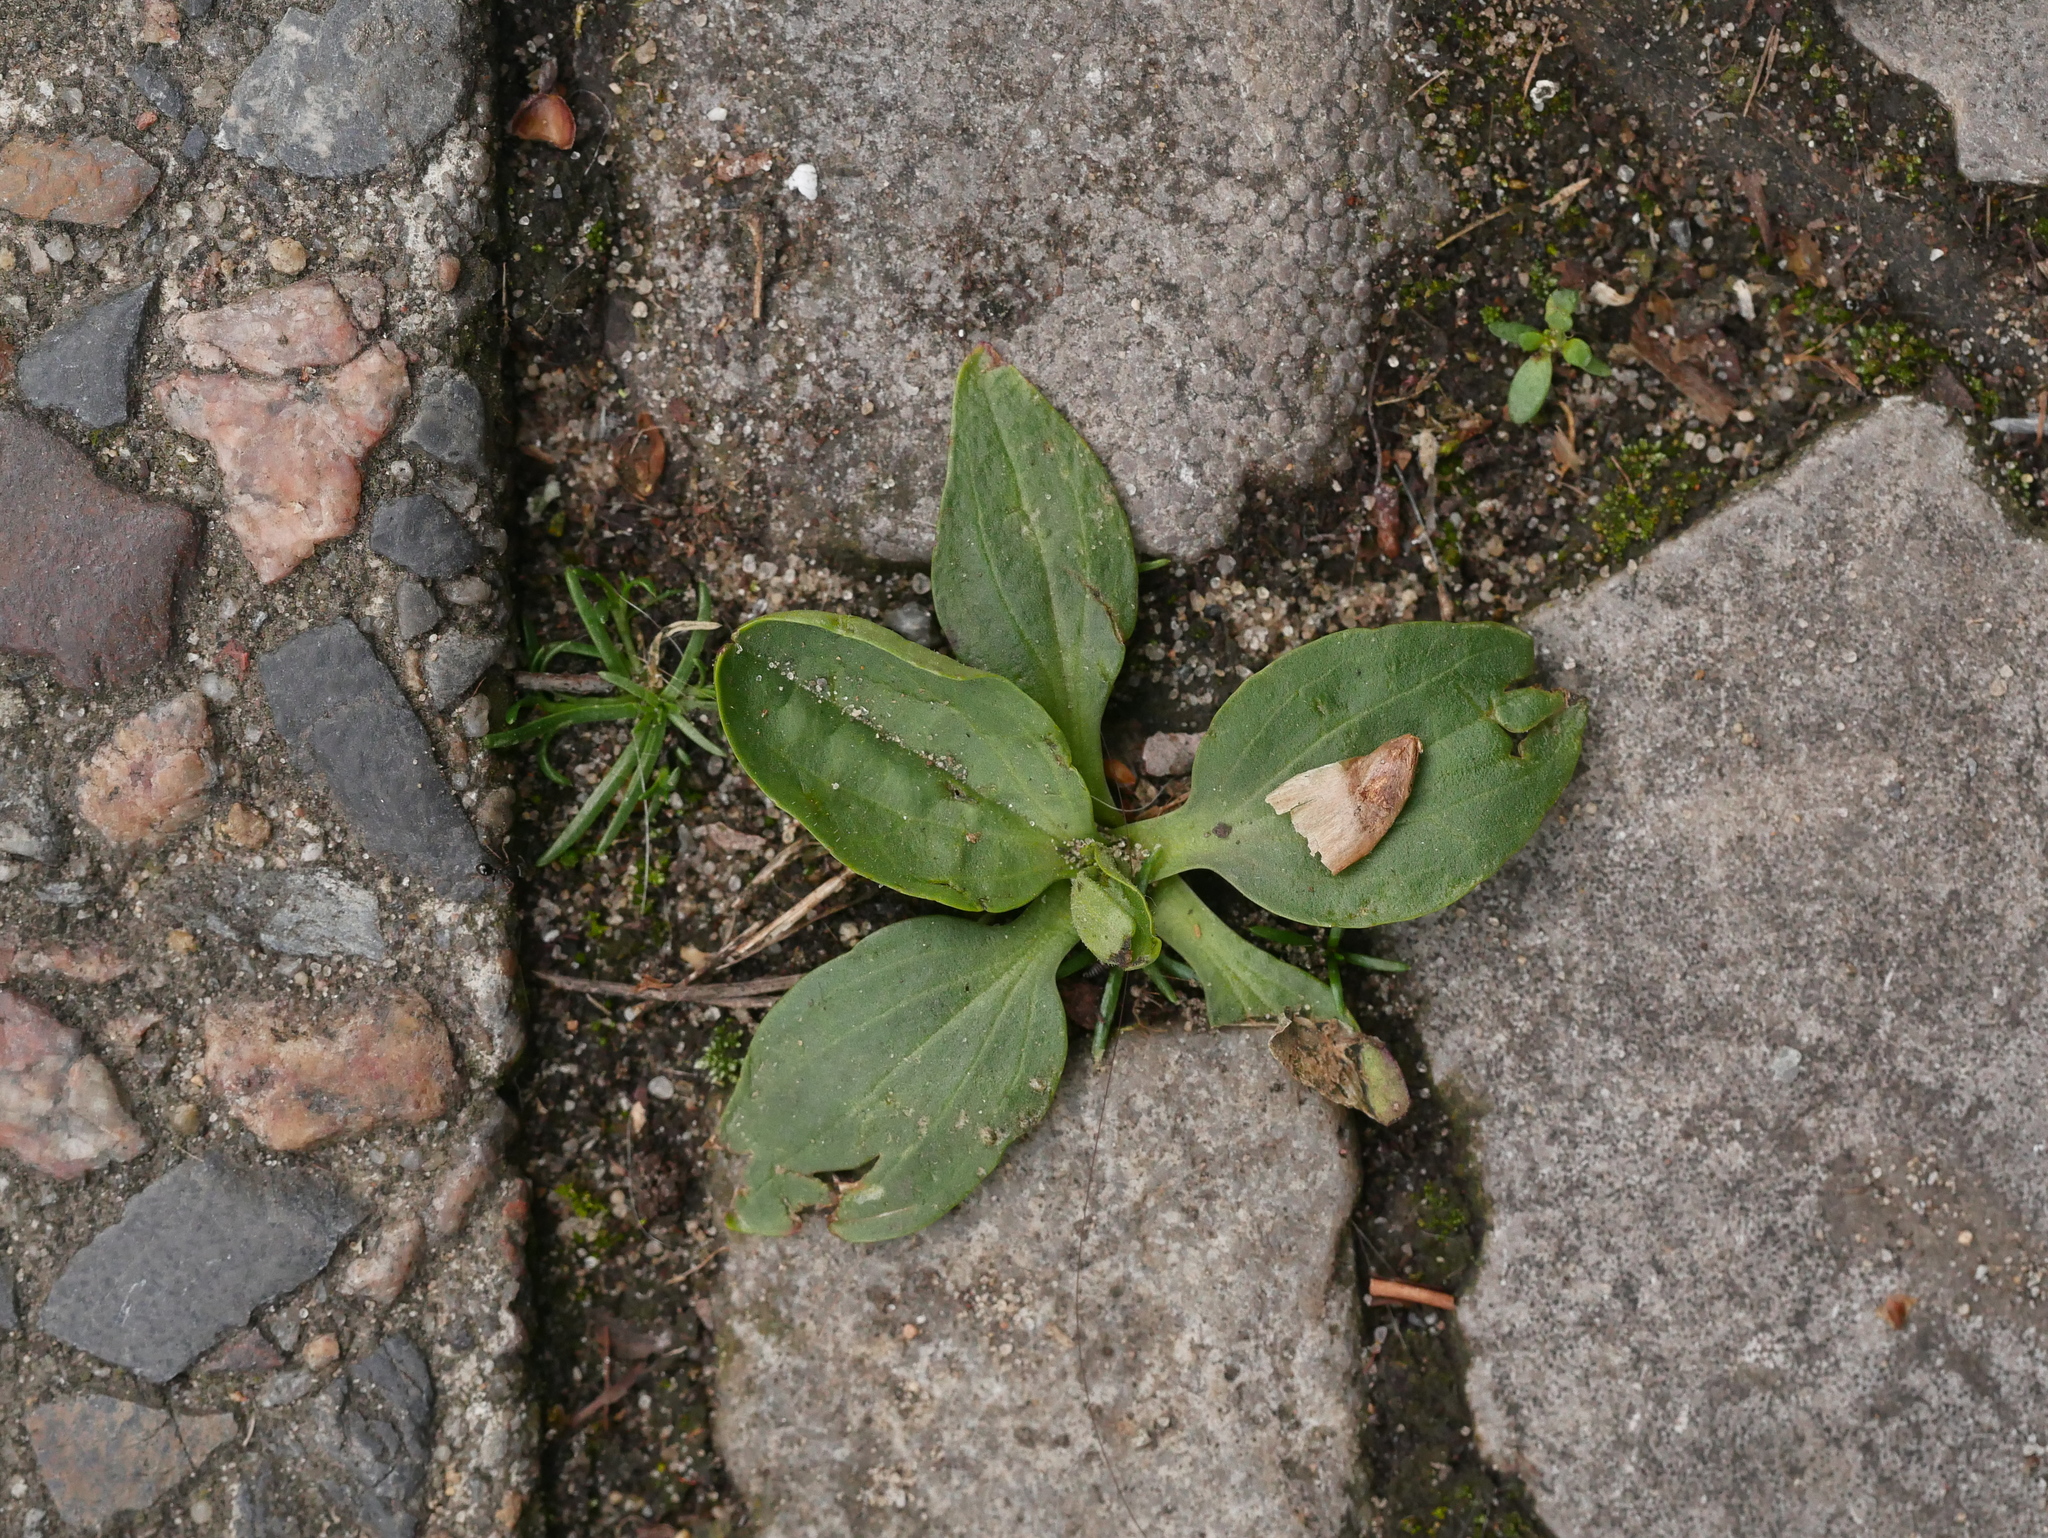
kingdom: Plantae
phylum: Tracheophyta
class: Magnoliopsida
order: Lamiales
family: Plantaginaceae
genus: Plantago
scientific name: Plantago major
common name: Common plantain
